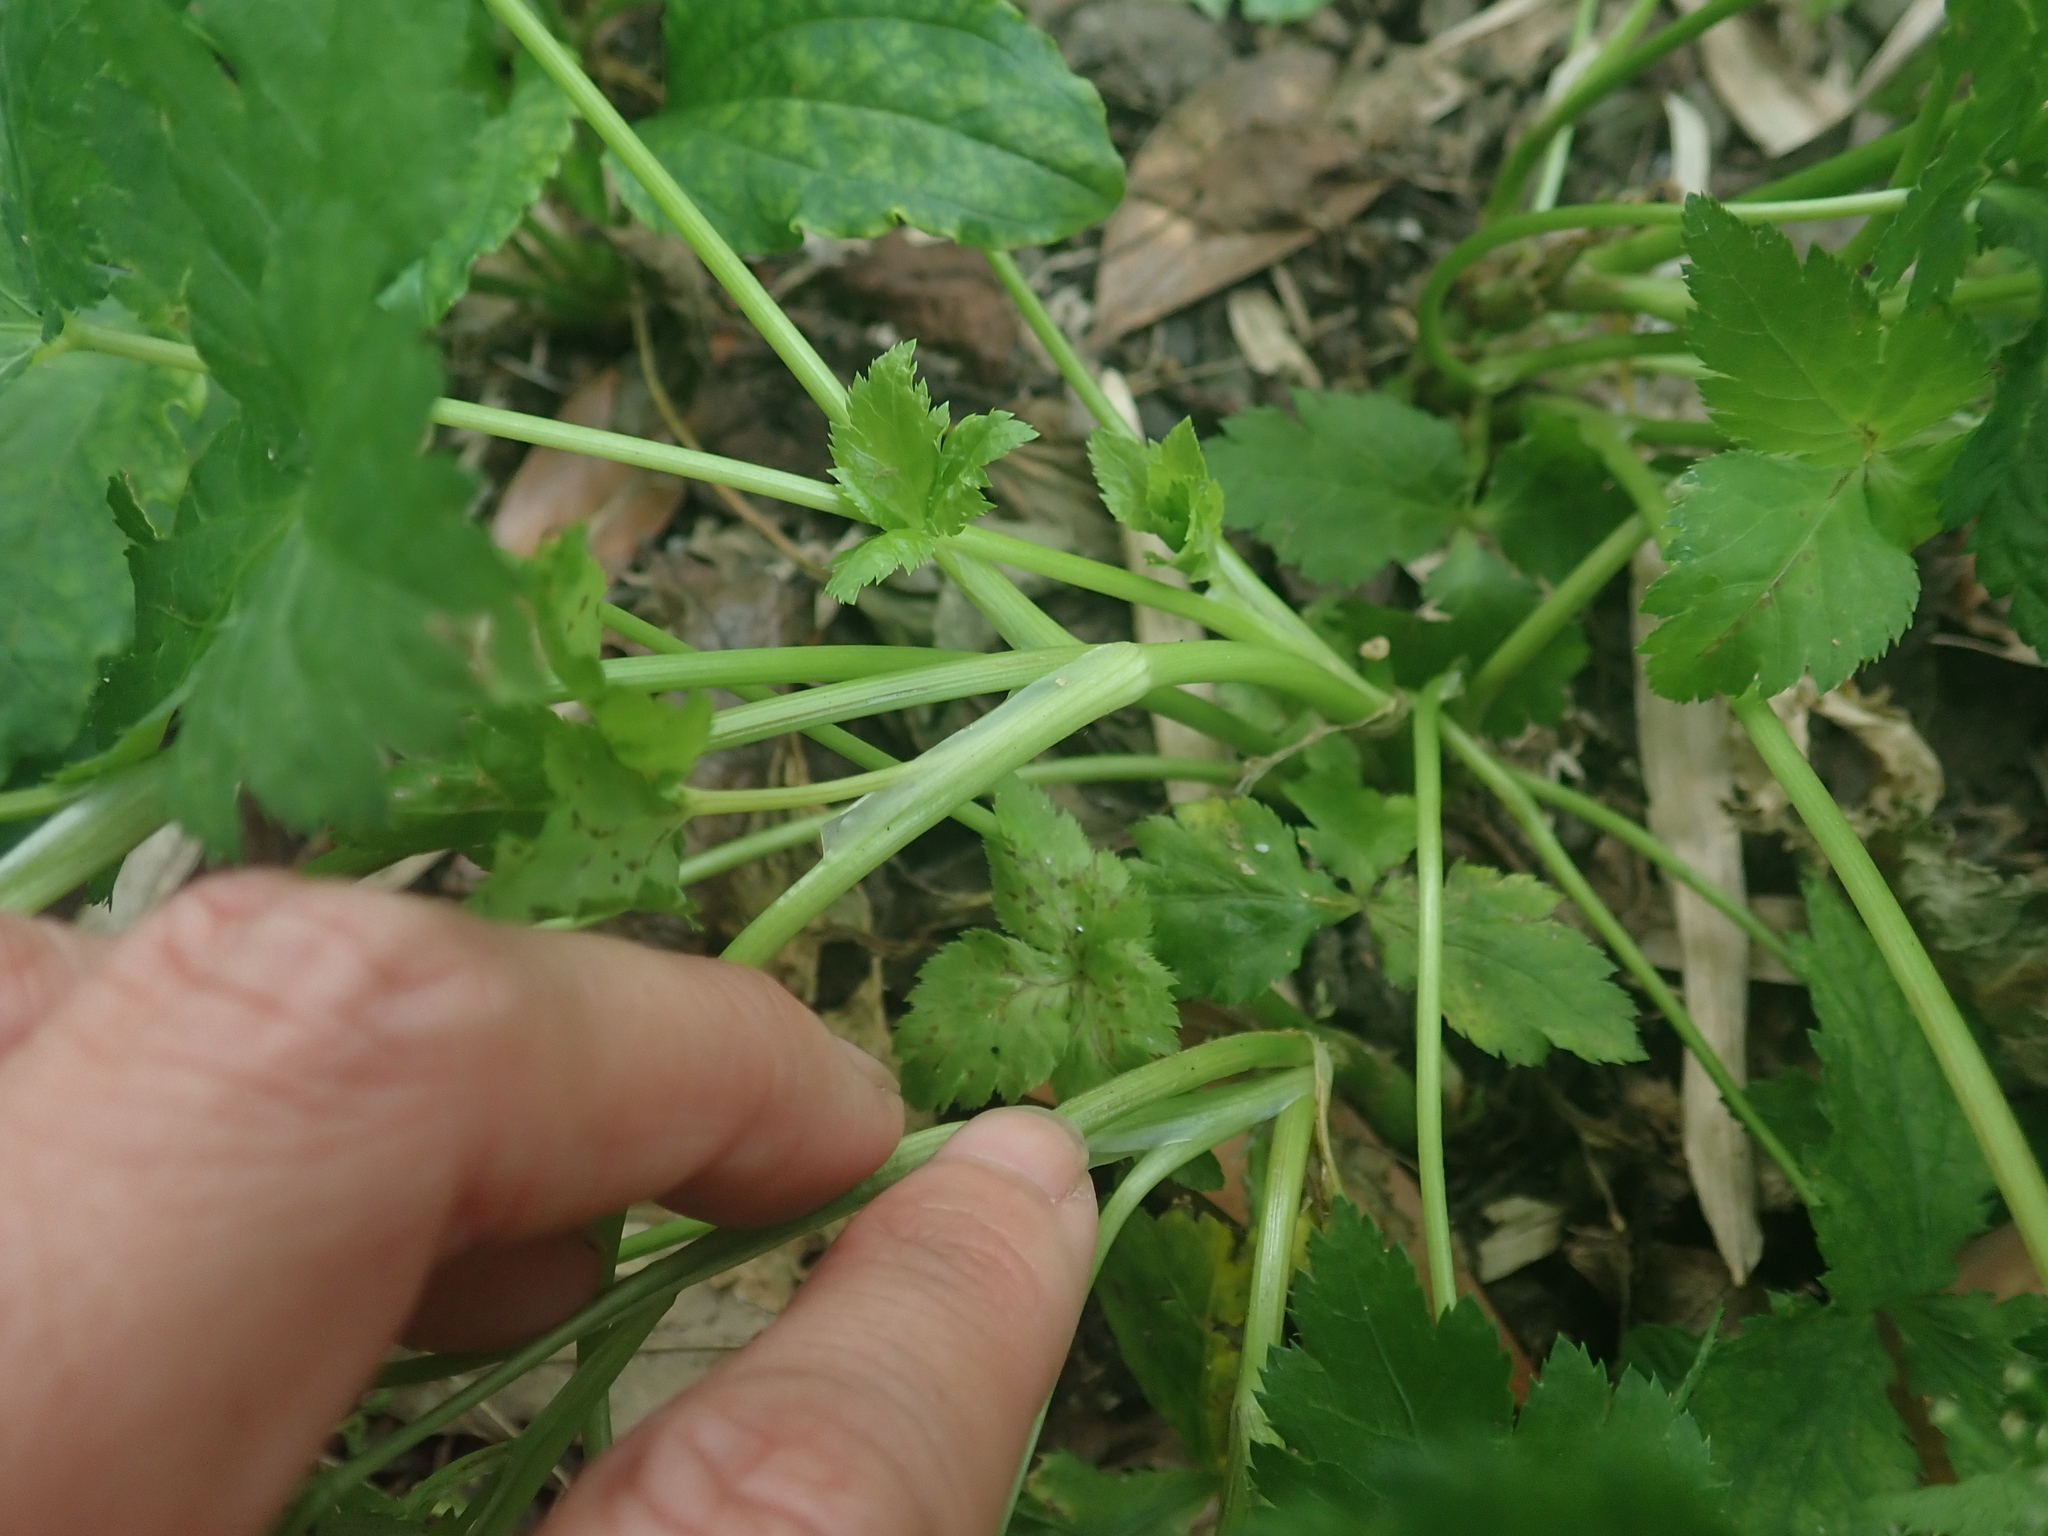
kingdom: Plantae
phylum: Tracheophyta
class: Magnoliopsida
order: Apiales
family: Apiaceae
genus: Cryptotaenia
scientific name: Cryptotaenia japonica
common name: Japanese cryptotaenia
